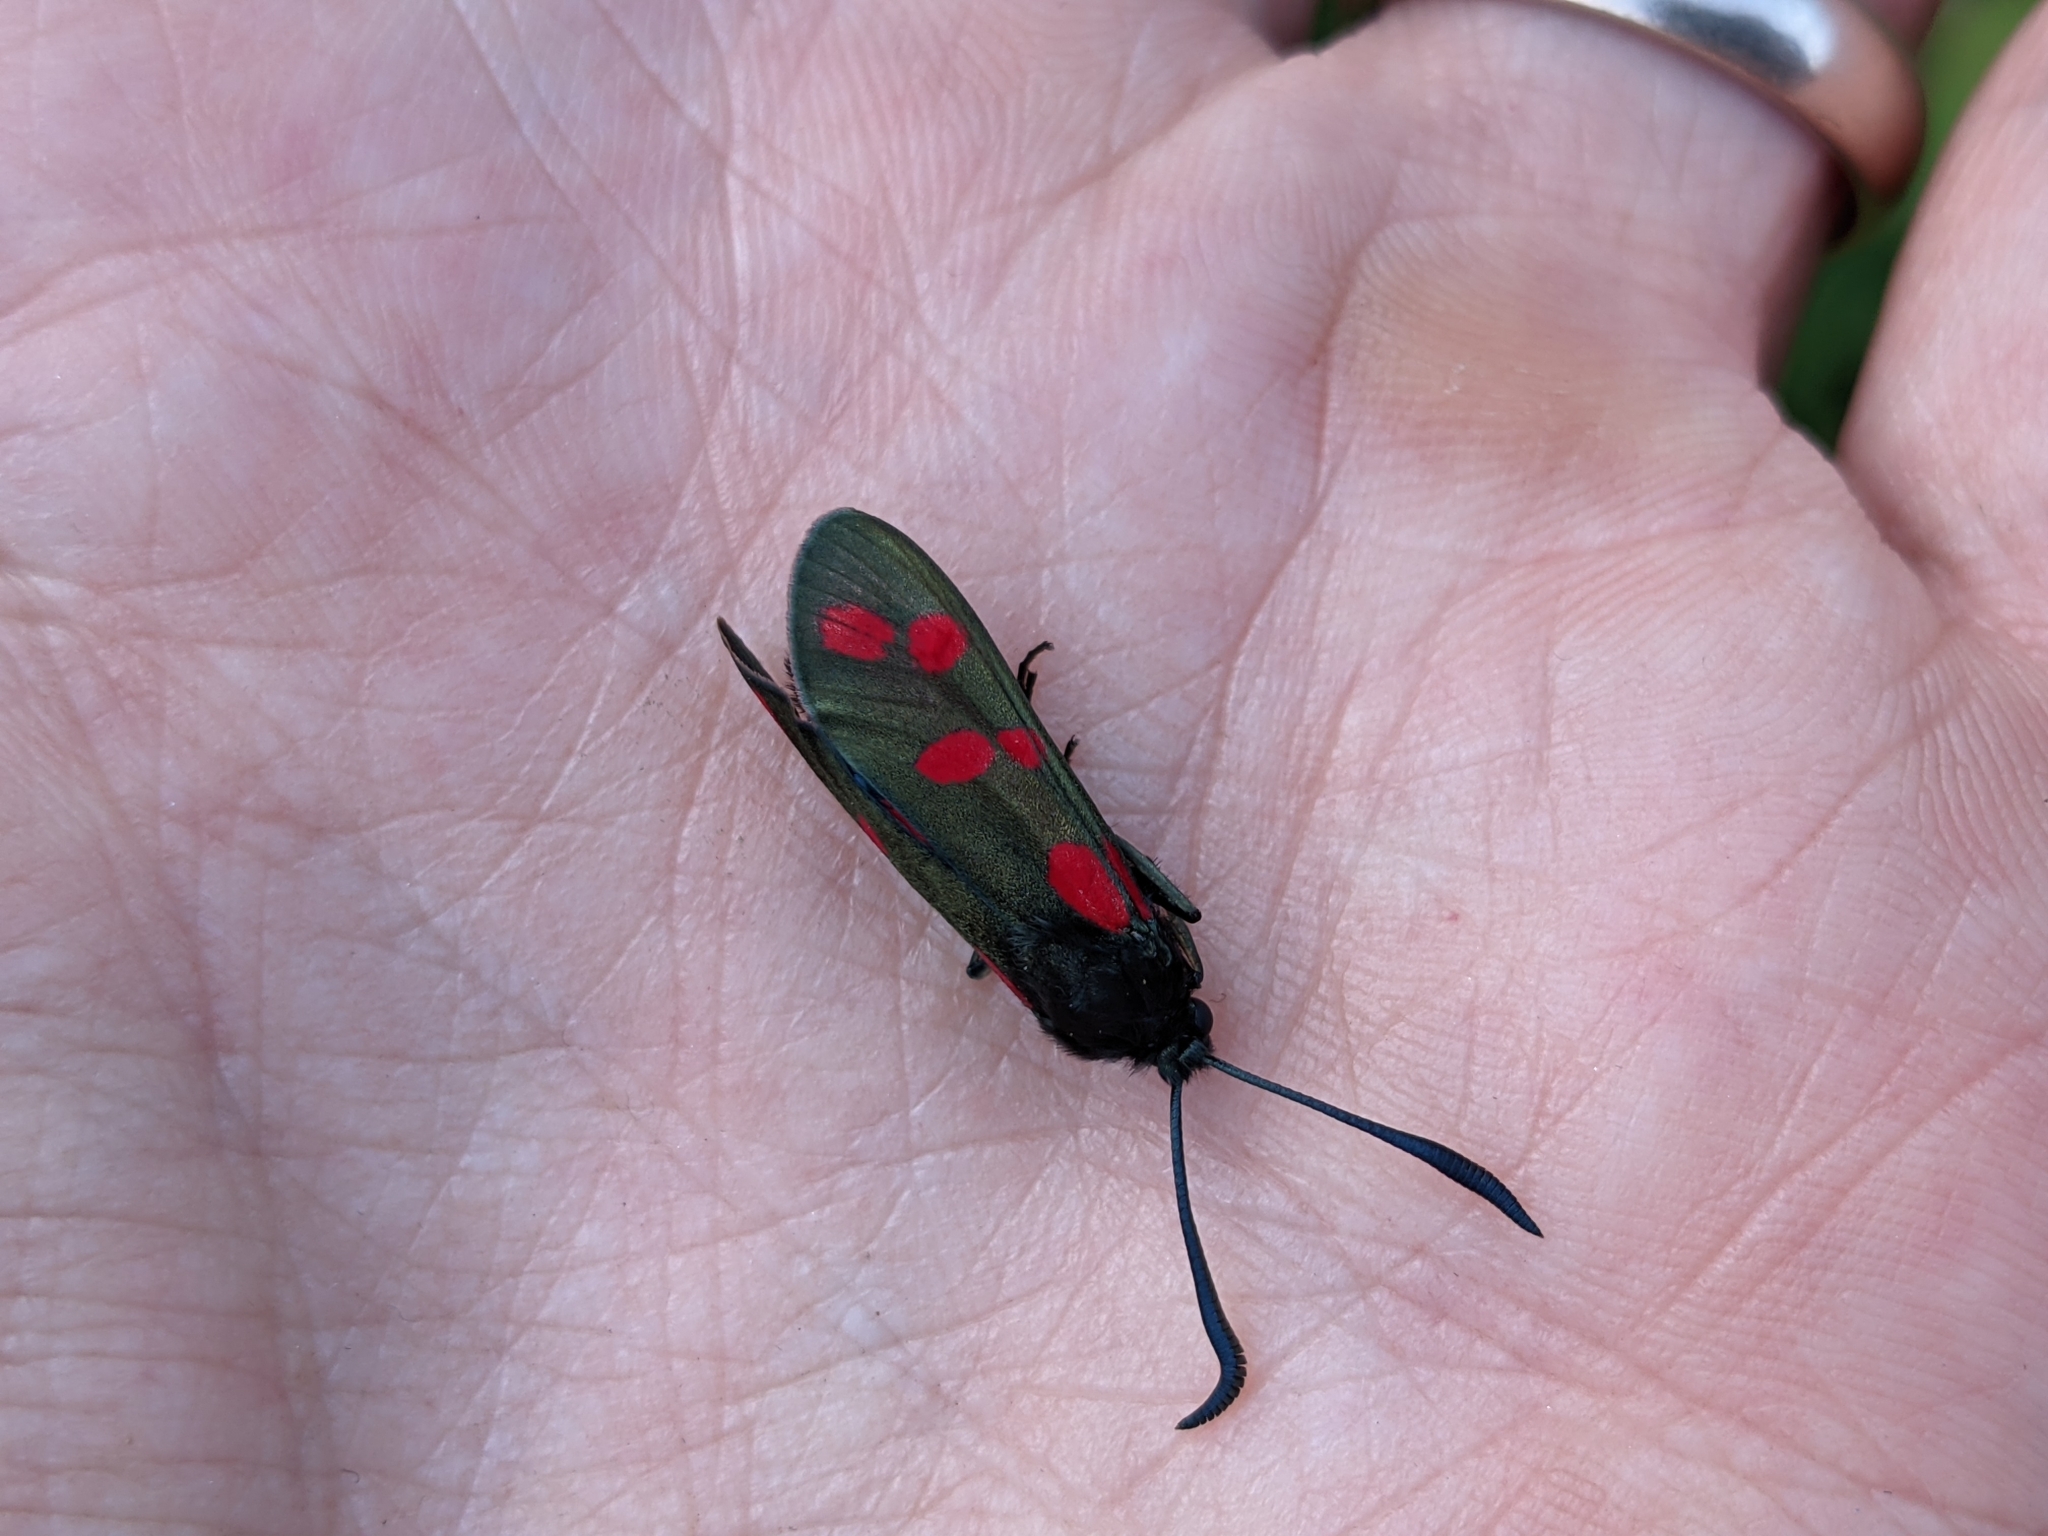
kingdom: Animalia
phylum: Arthropoda
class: Insecta
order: Lepidoptera
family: Zygaenidae
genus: Zygaena
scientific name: Zygaena filipendulae
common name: Six-spot burnet
